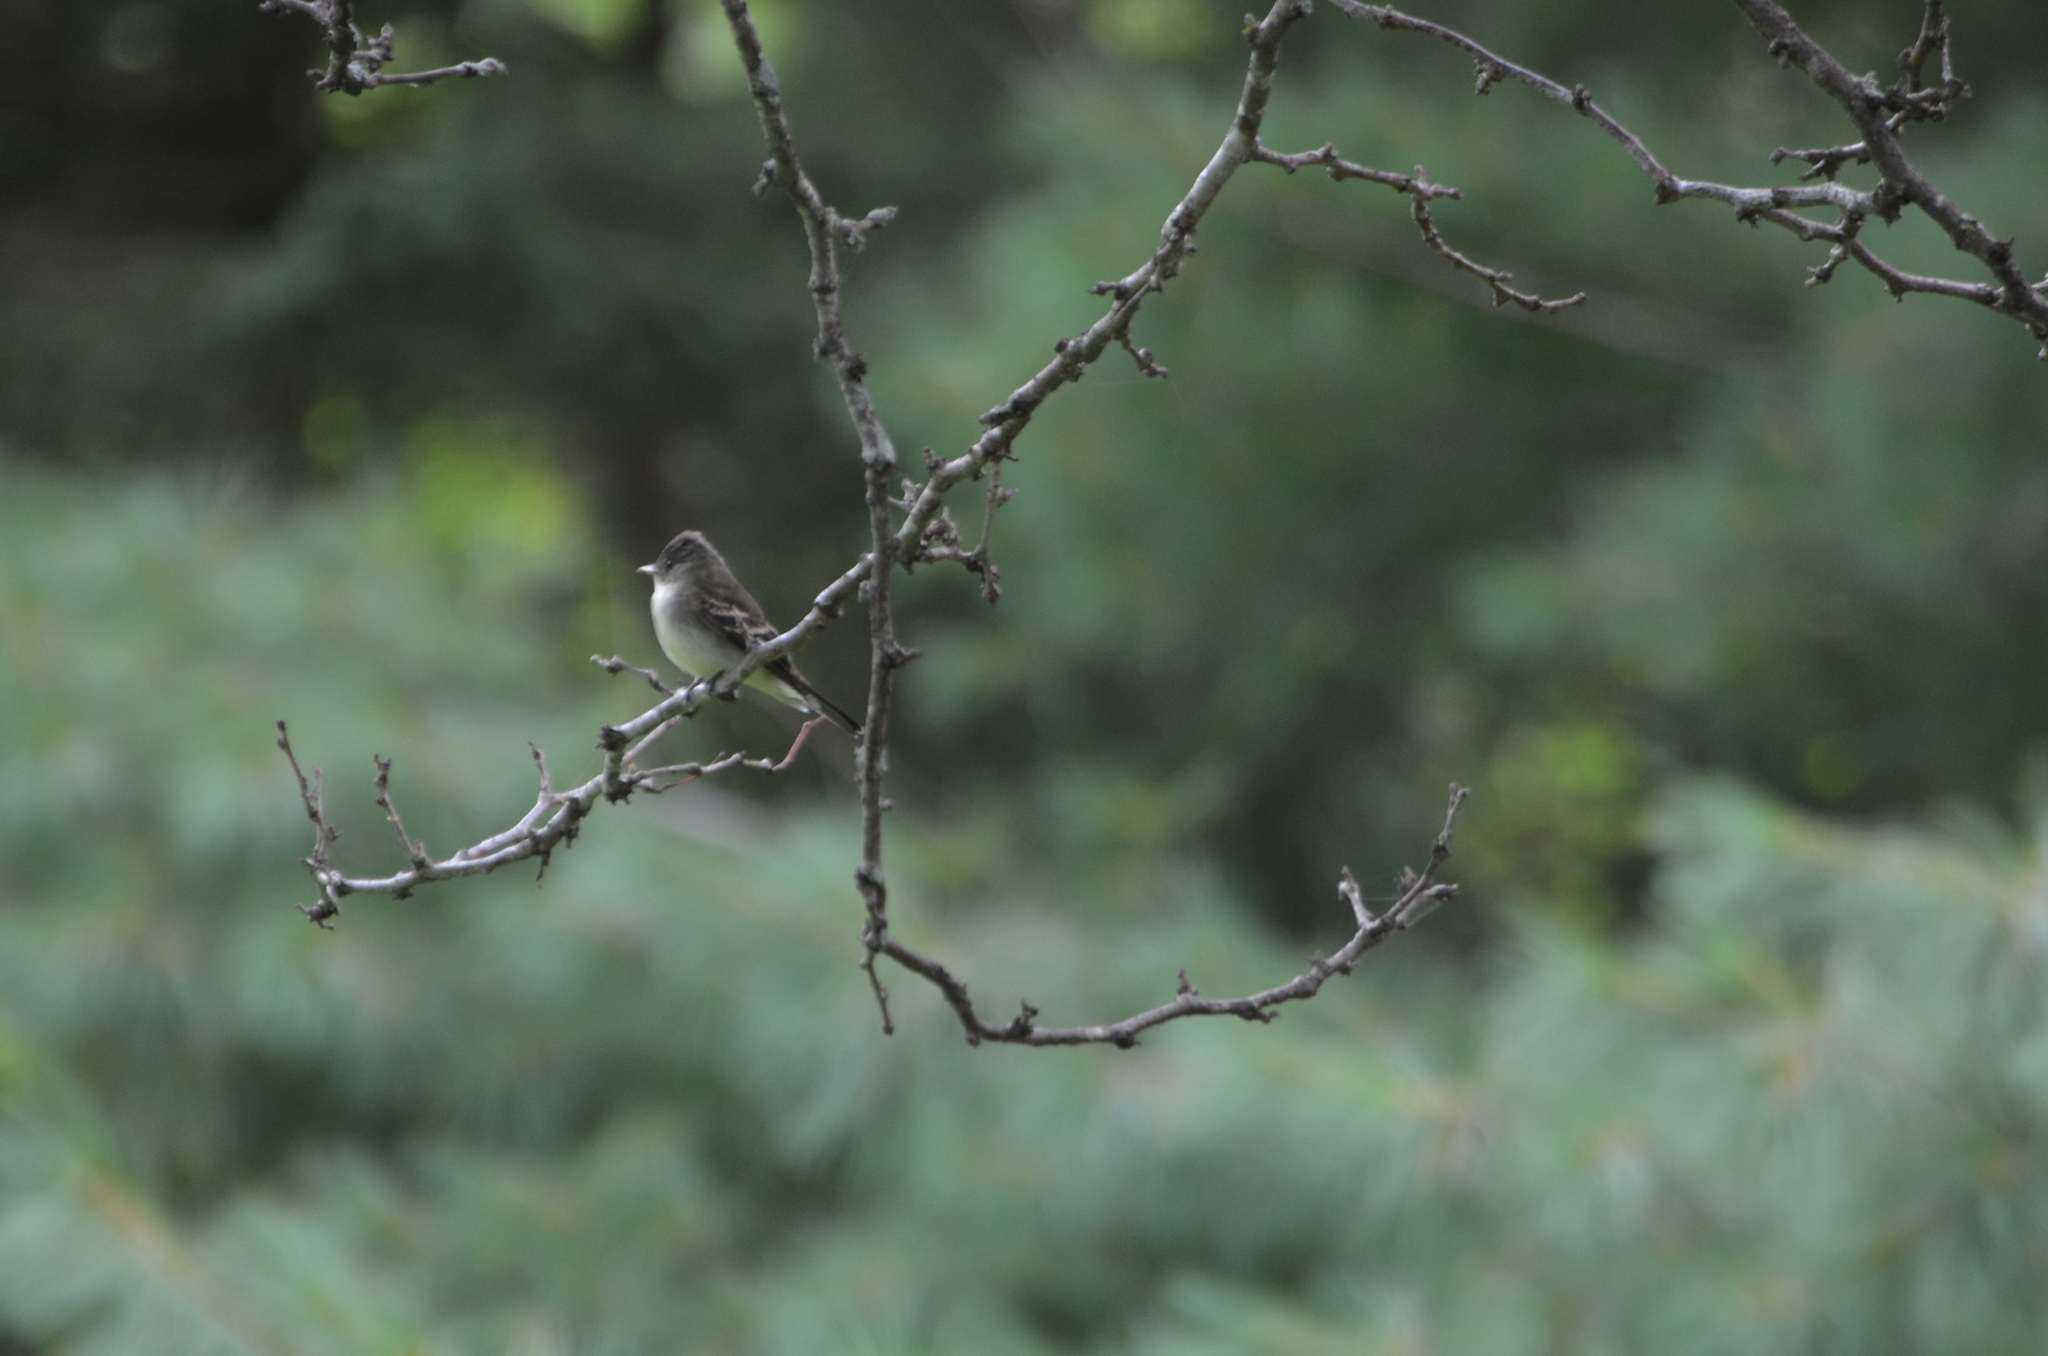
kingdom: Animalia
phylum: Chordata
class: Aves
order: Passeriformes
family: Tyrannidae
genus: Sayornis
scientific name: Sayornis phoebe
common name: Eastern phoebe
